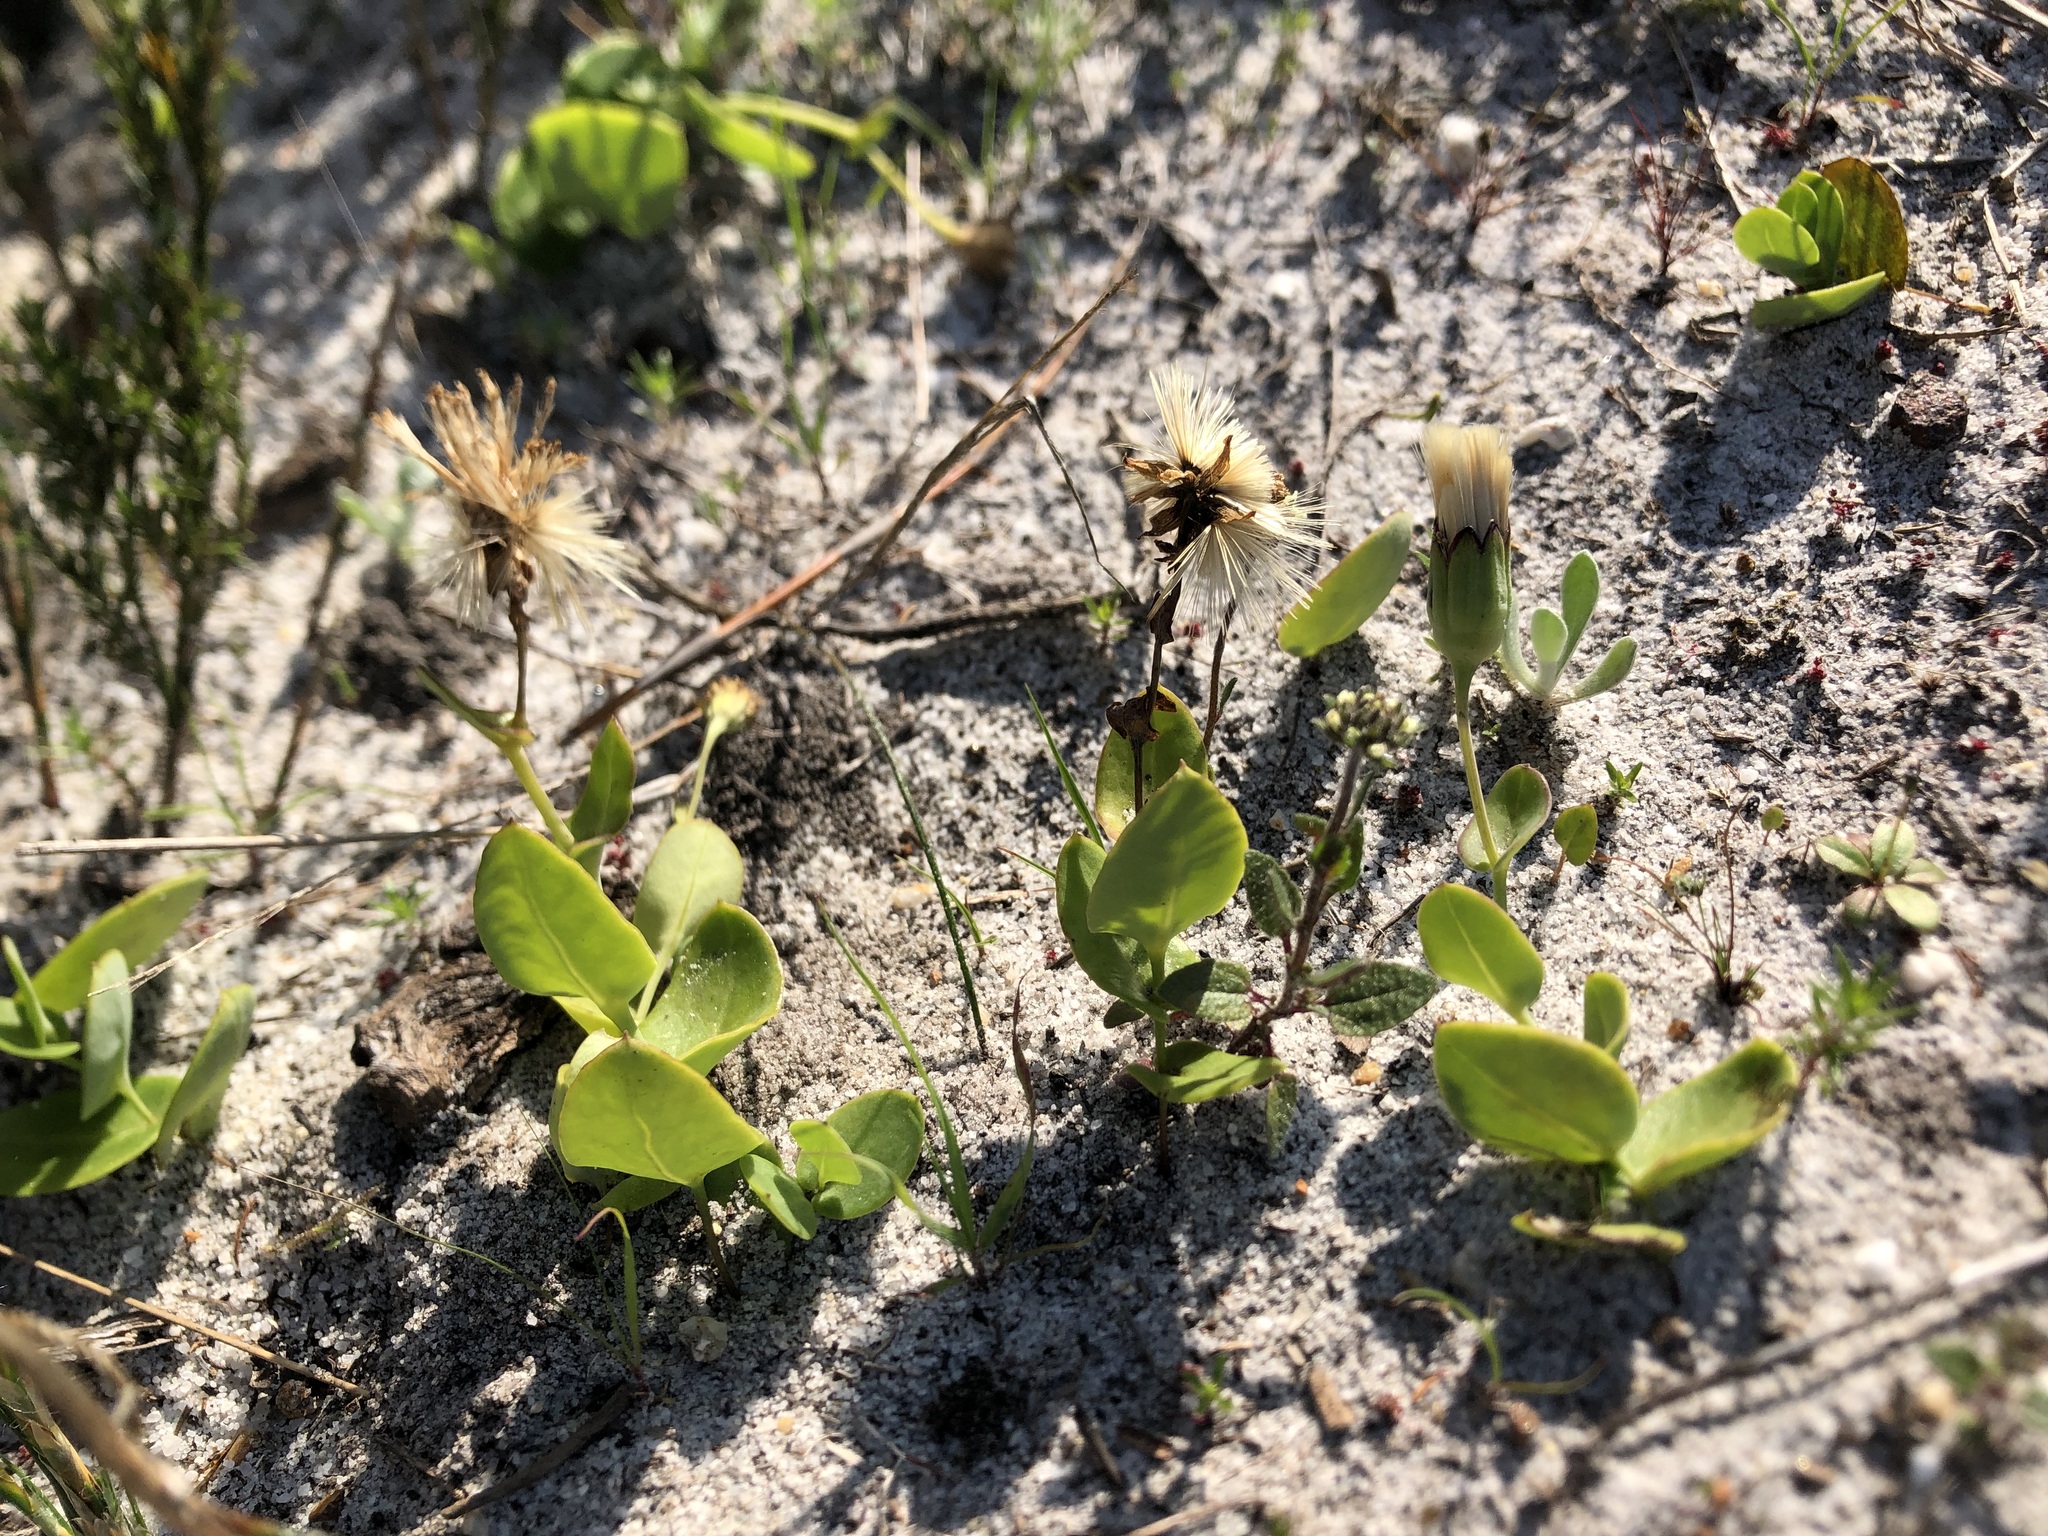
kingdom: Plantae
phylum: Tracheophyta
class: Magnoliopsida
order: Asterales
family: Asteraceae
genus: Othonna
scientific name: Othonna undulosa
